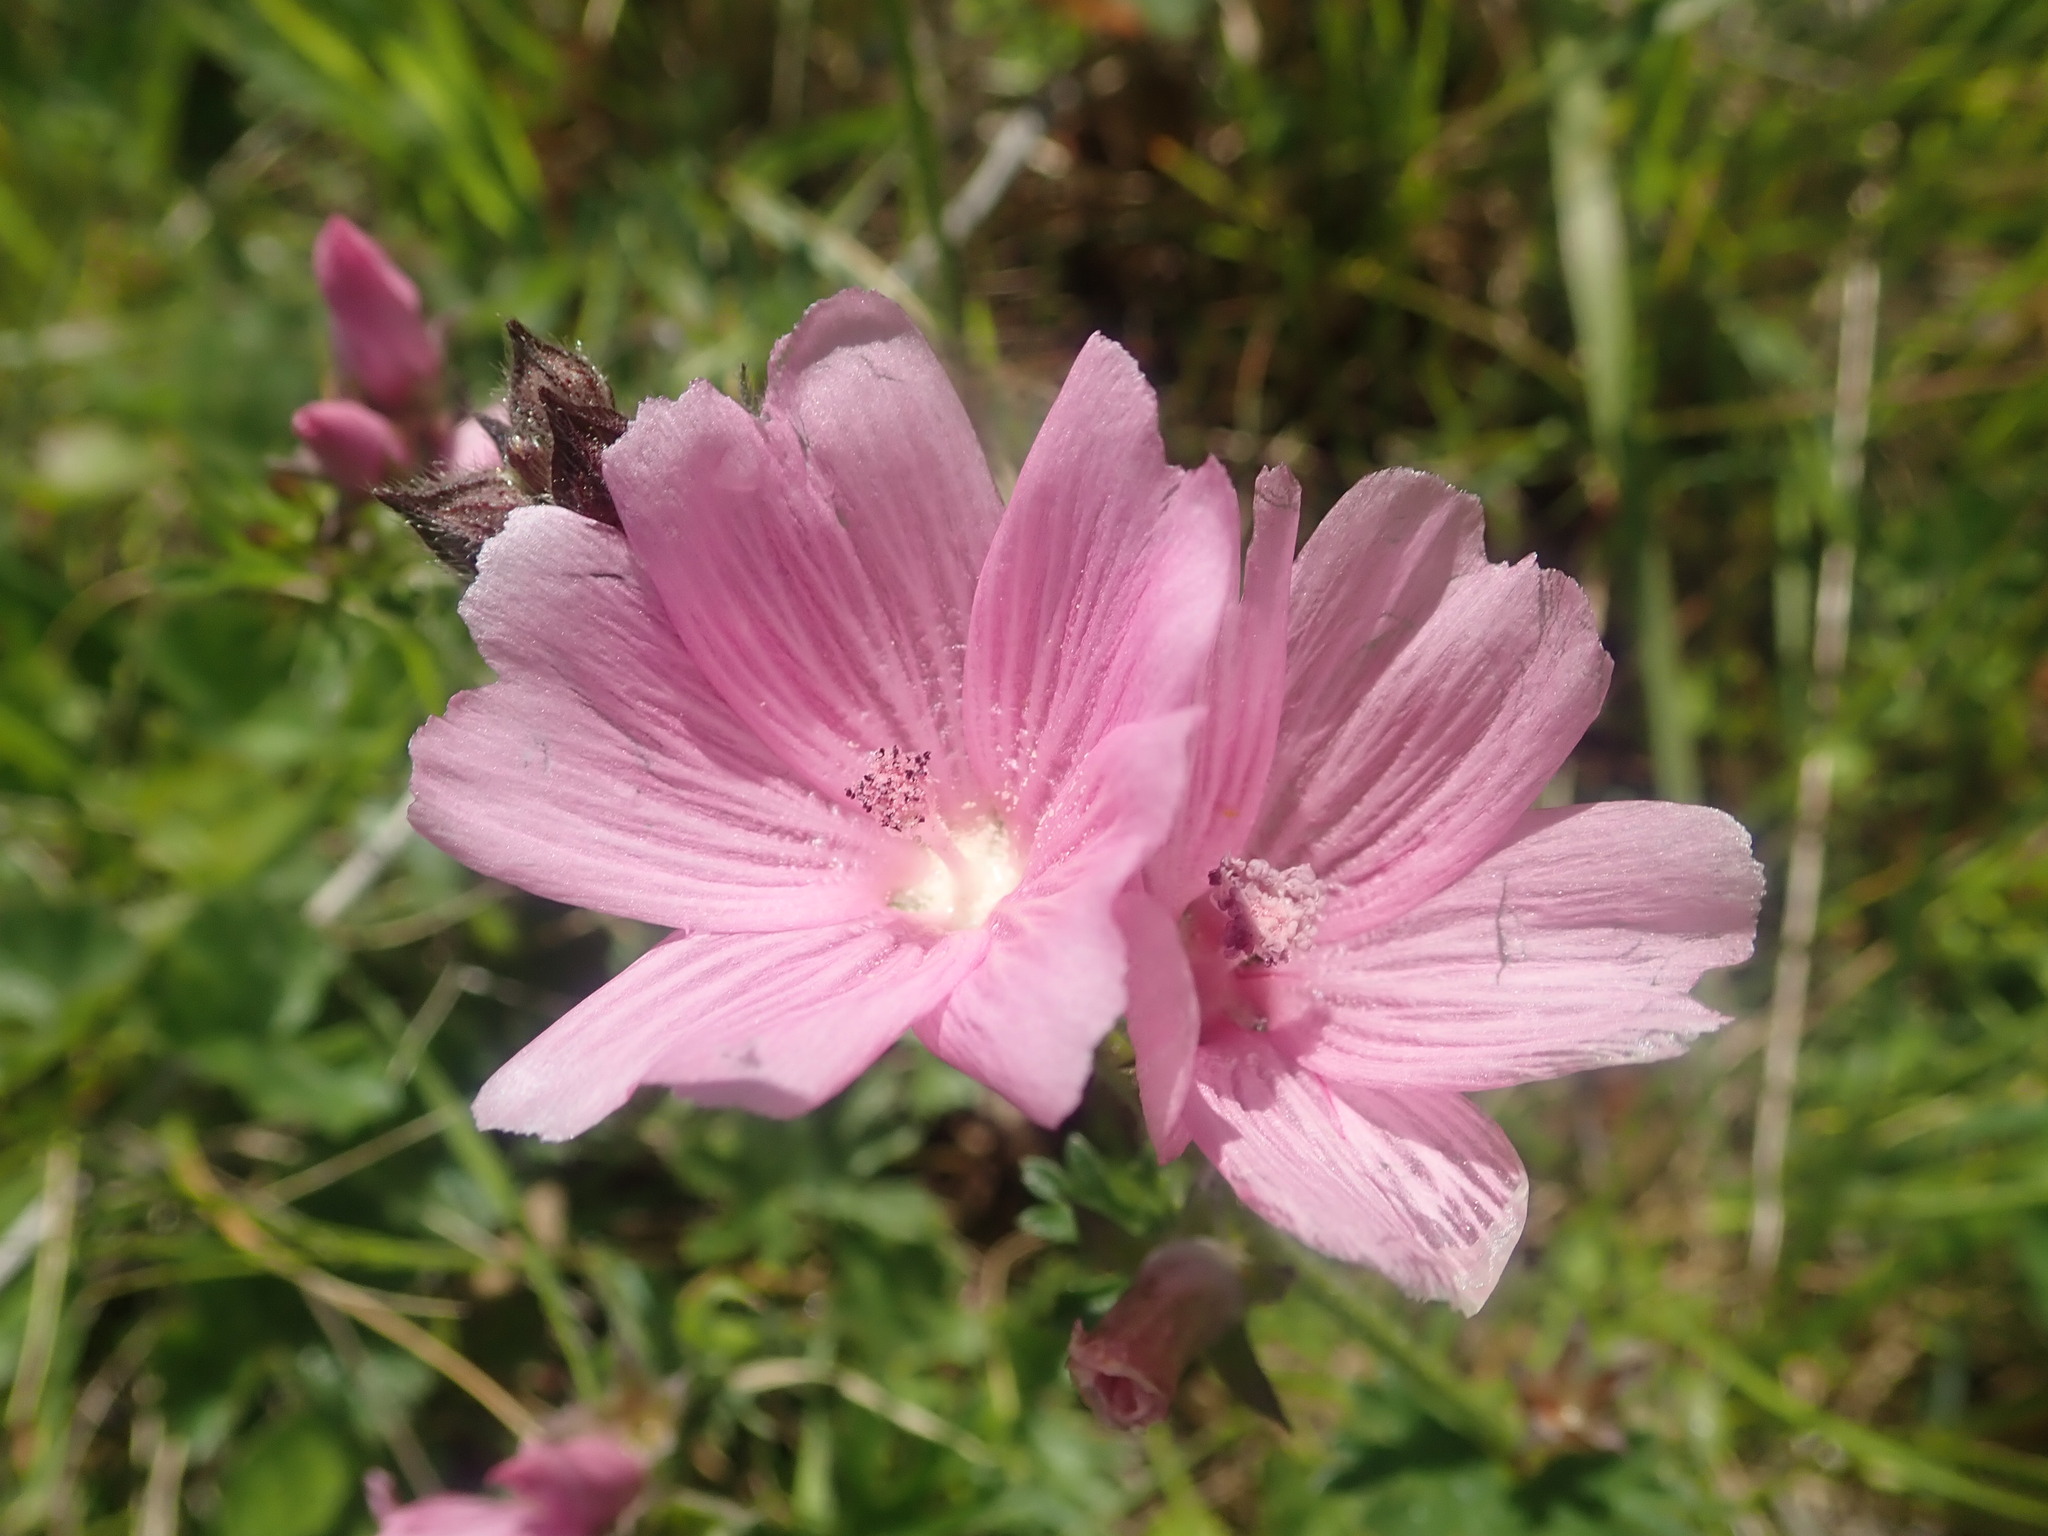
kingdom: Plantae
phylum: Tracheophyta
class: Magnoliopsida
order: Malvales
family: Malvaceae
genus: Sidalcea
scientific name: Sidalcea malviflora
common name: Greek mallow
